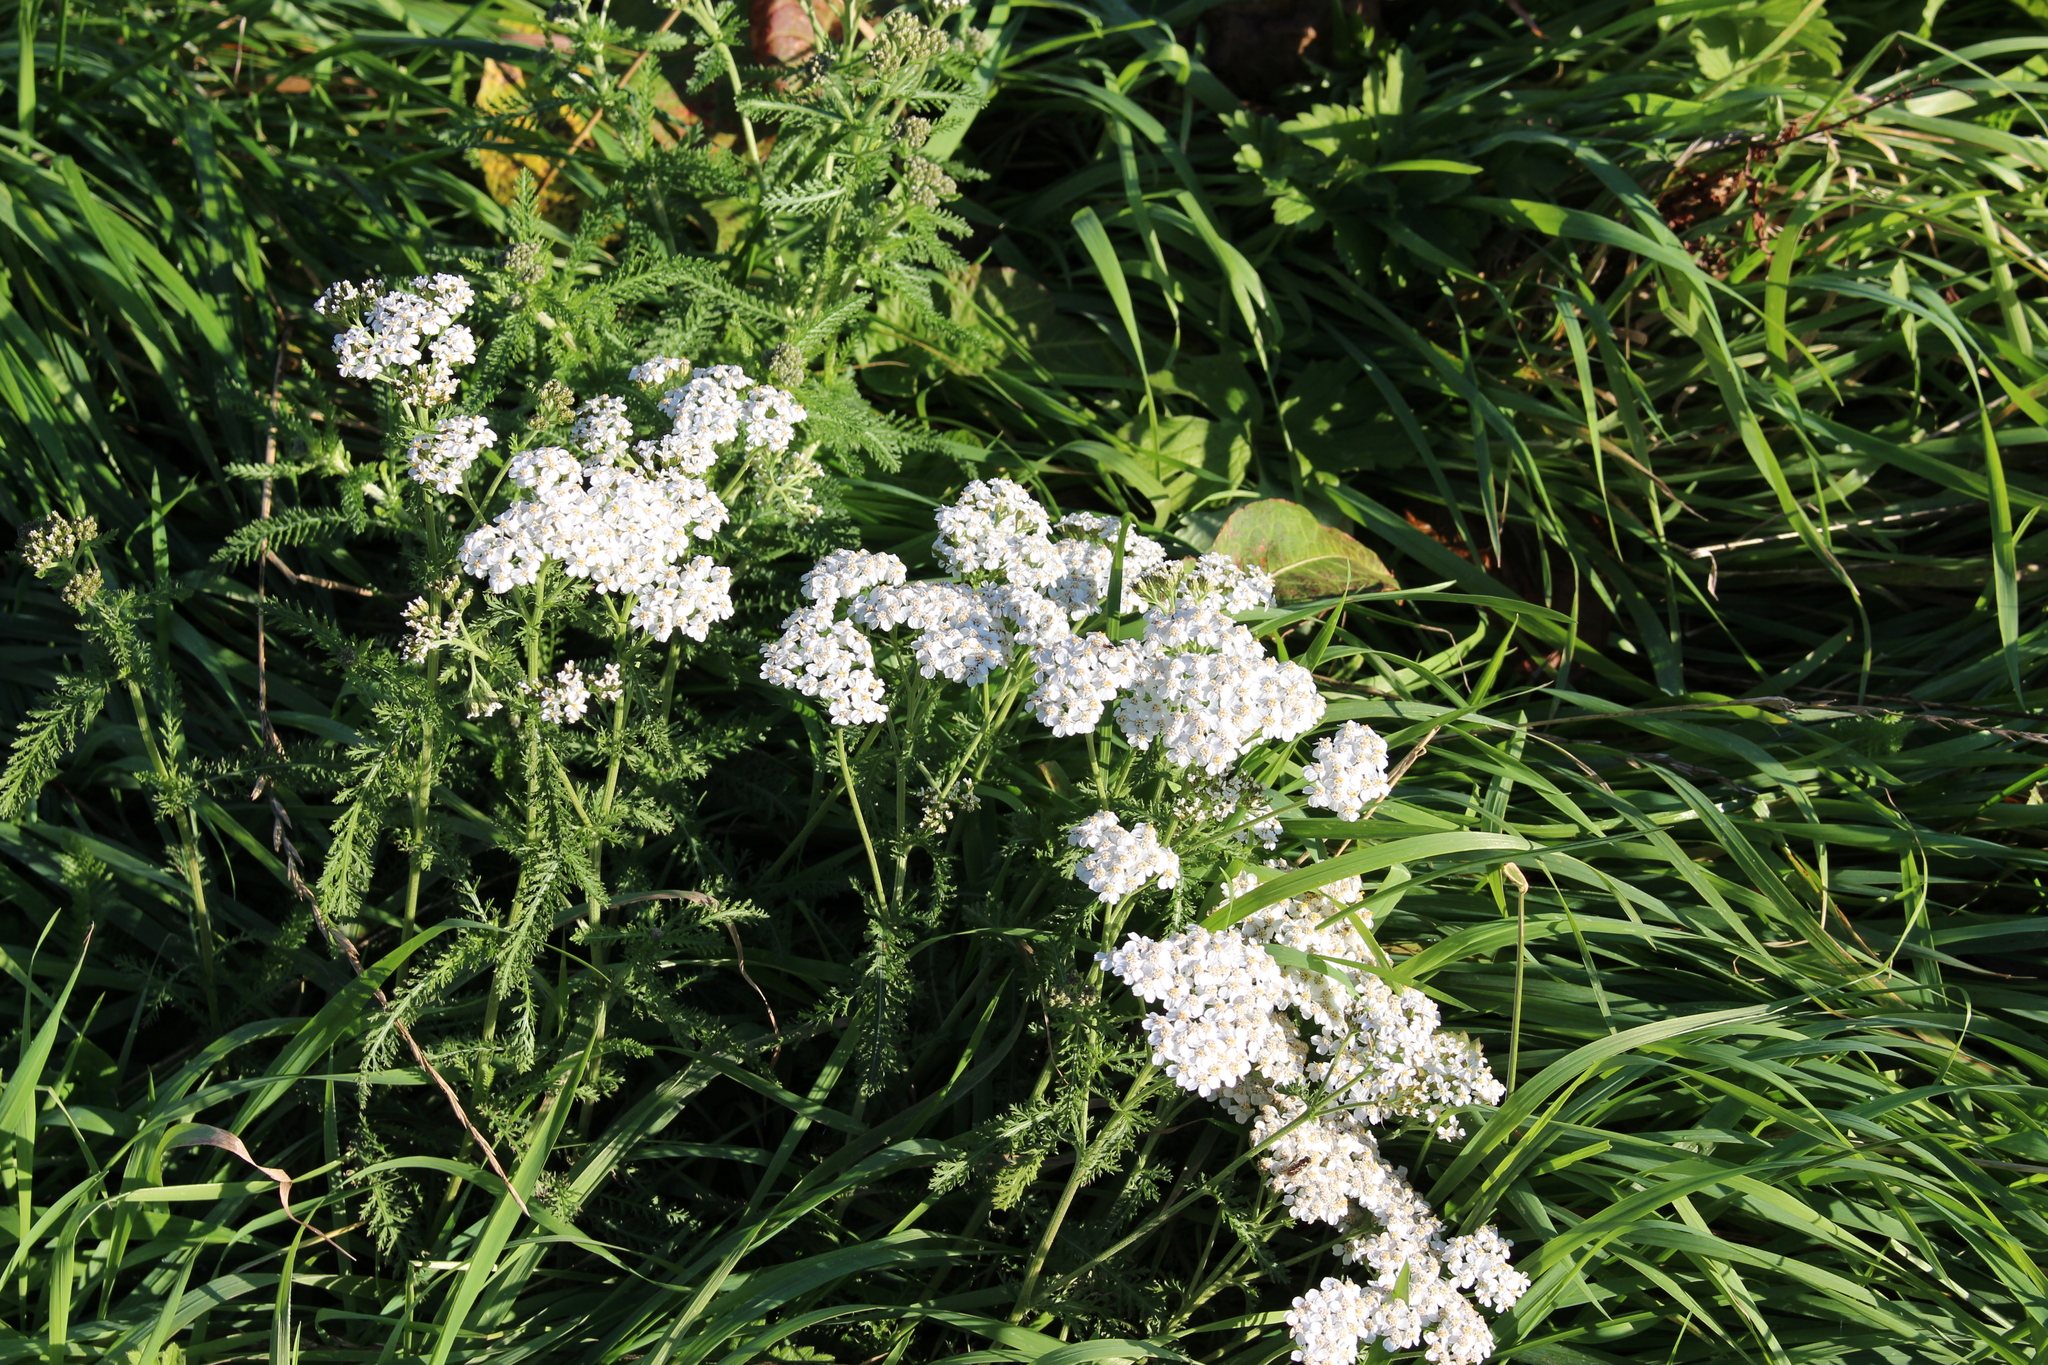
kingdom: Plantae
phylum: Tracheophyta
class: Magnoliopsida
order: Asterales
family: Asteraceae
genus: Achillea
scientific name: Achillea millefolium
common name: Yarrow
